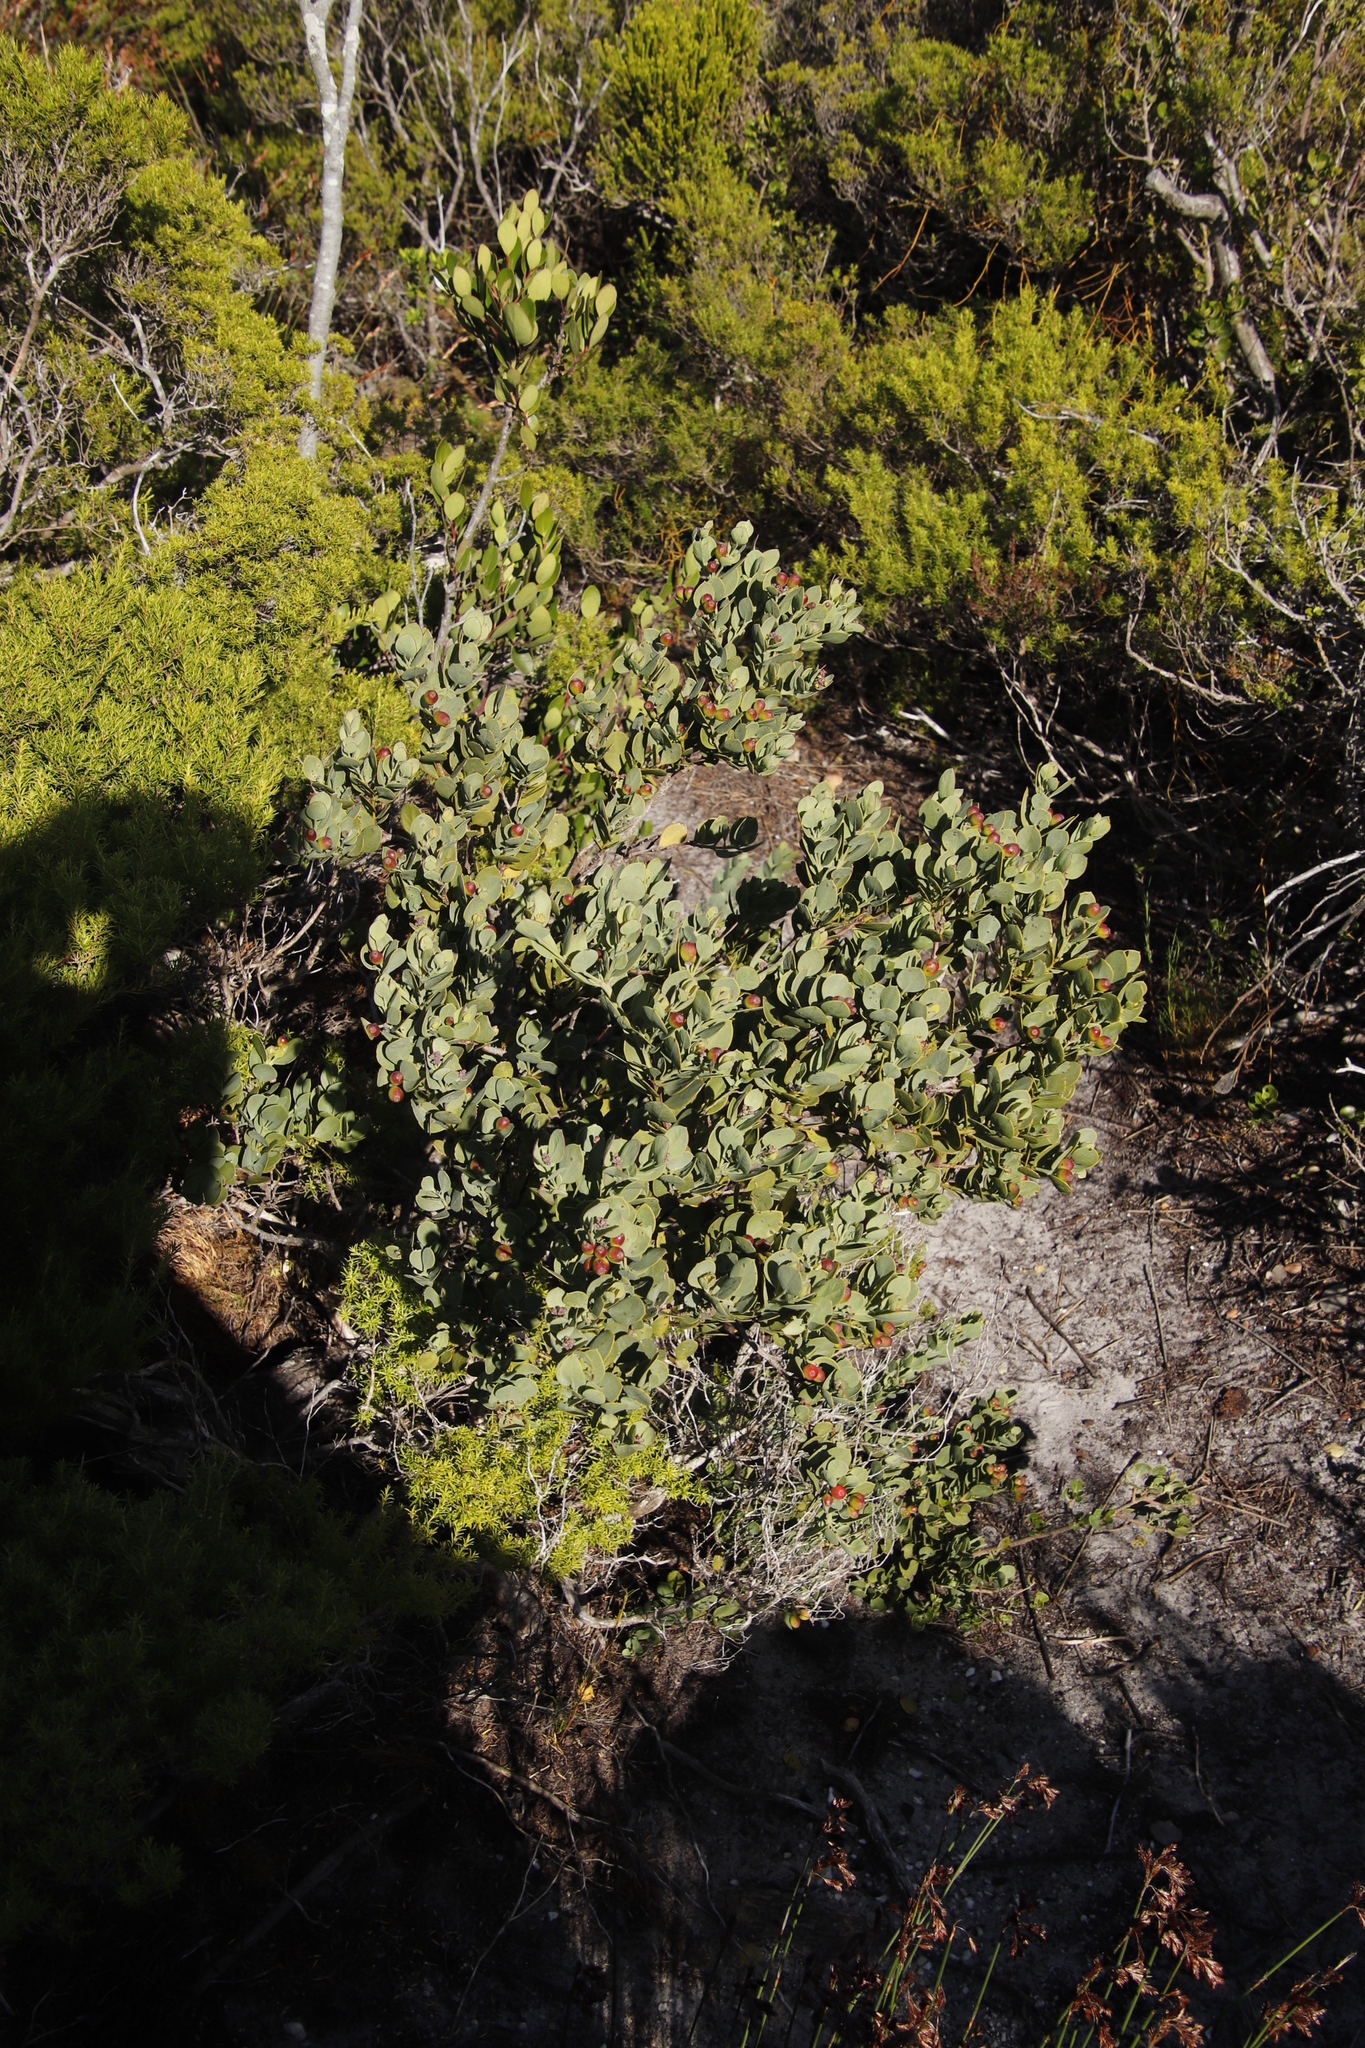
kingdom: Plantae
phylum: Tracheophyta
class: Magnoliopsida
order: Santalales
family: Santalaceae
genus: Osyris
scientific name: Osyris compressa
